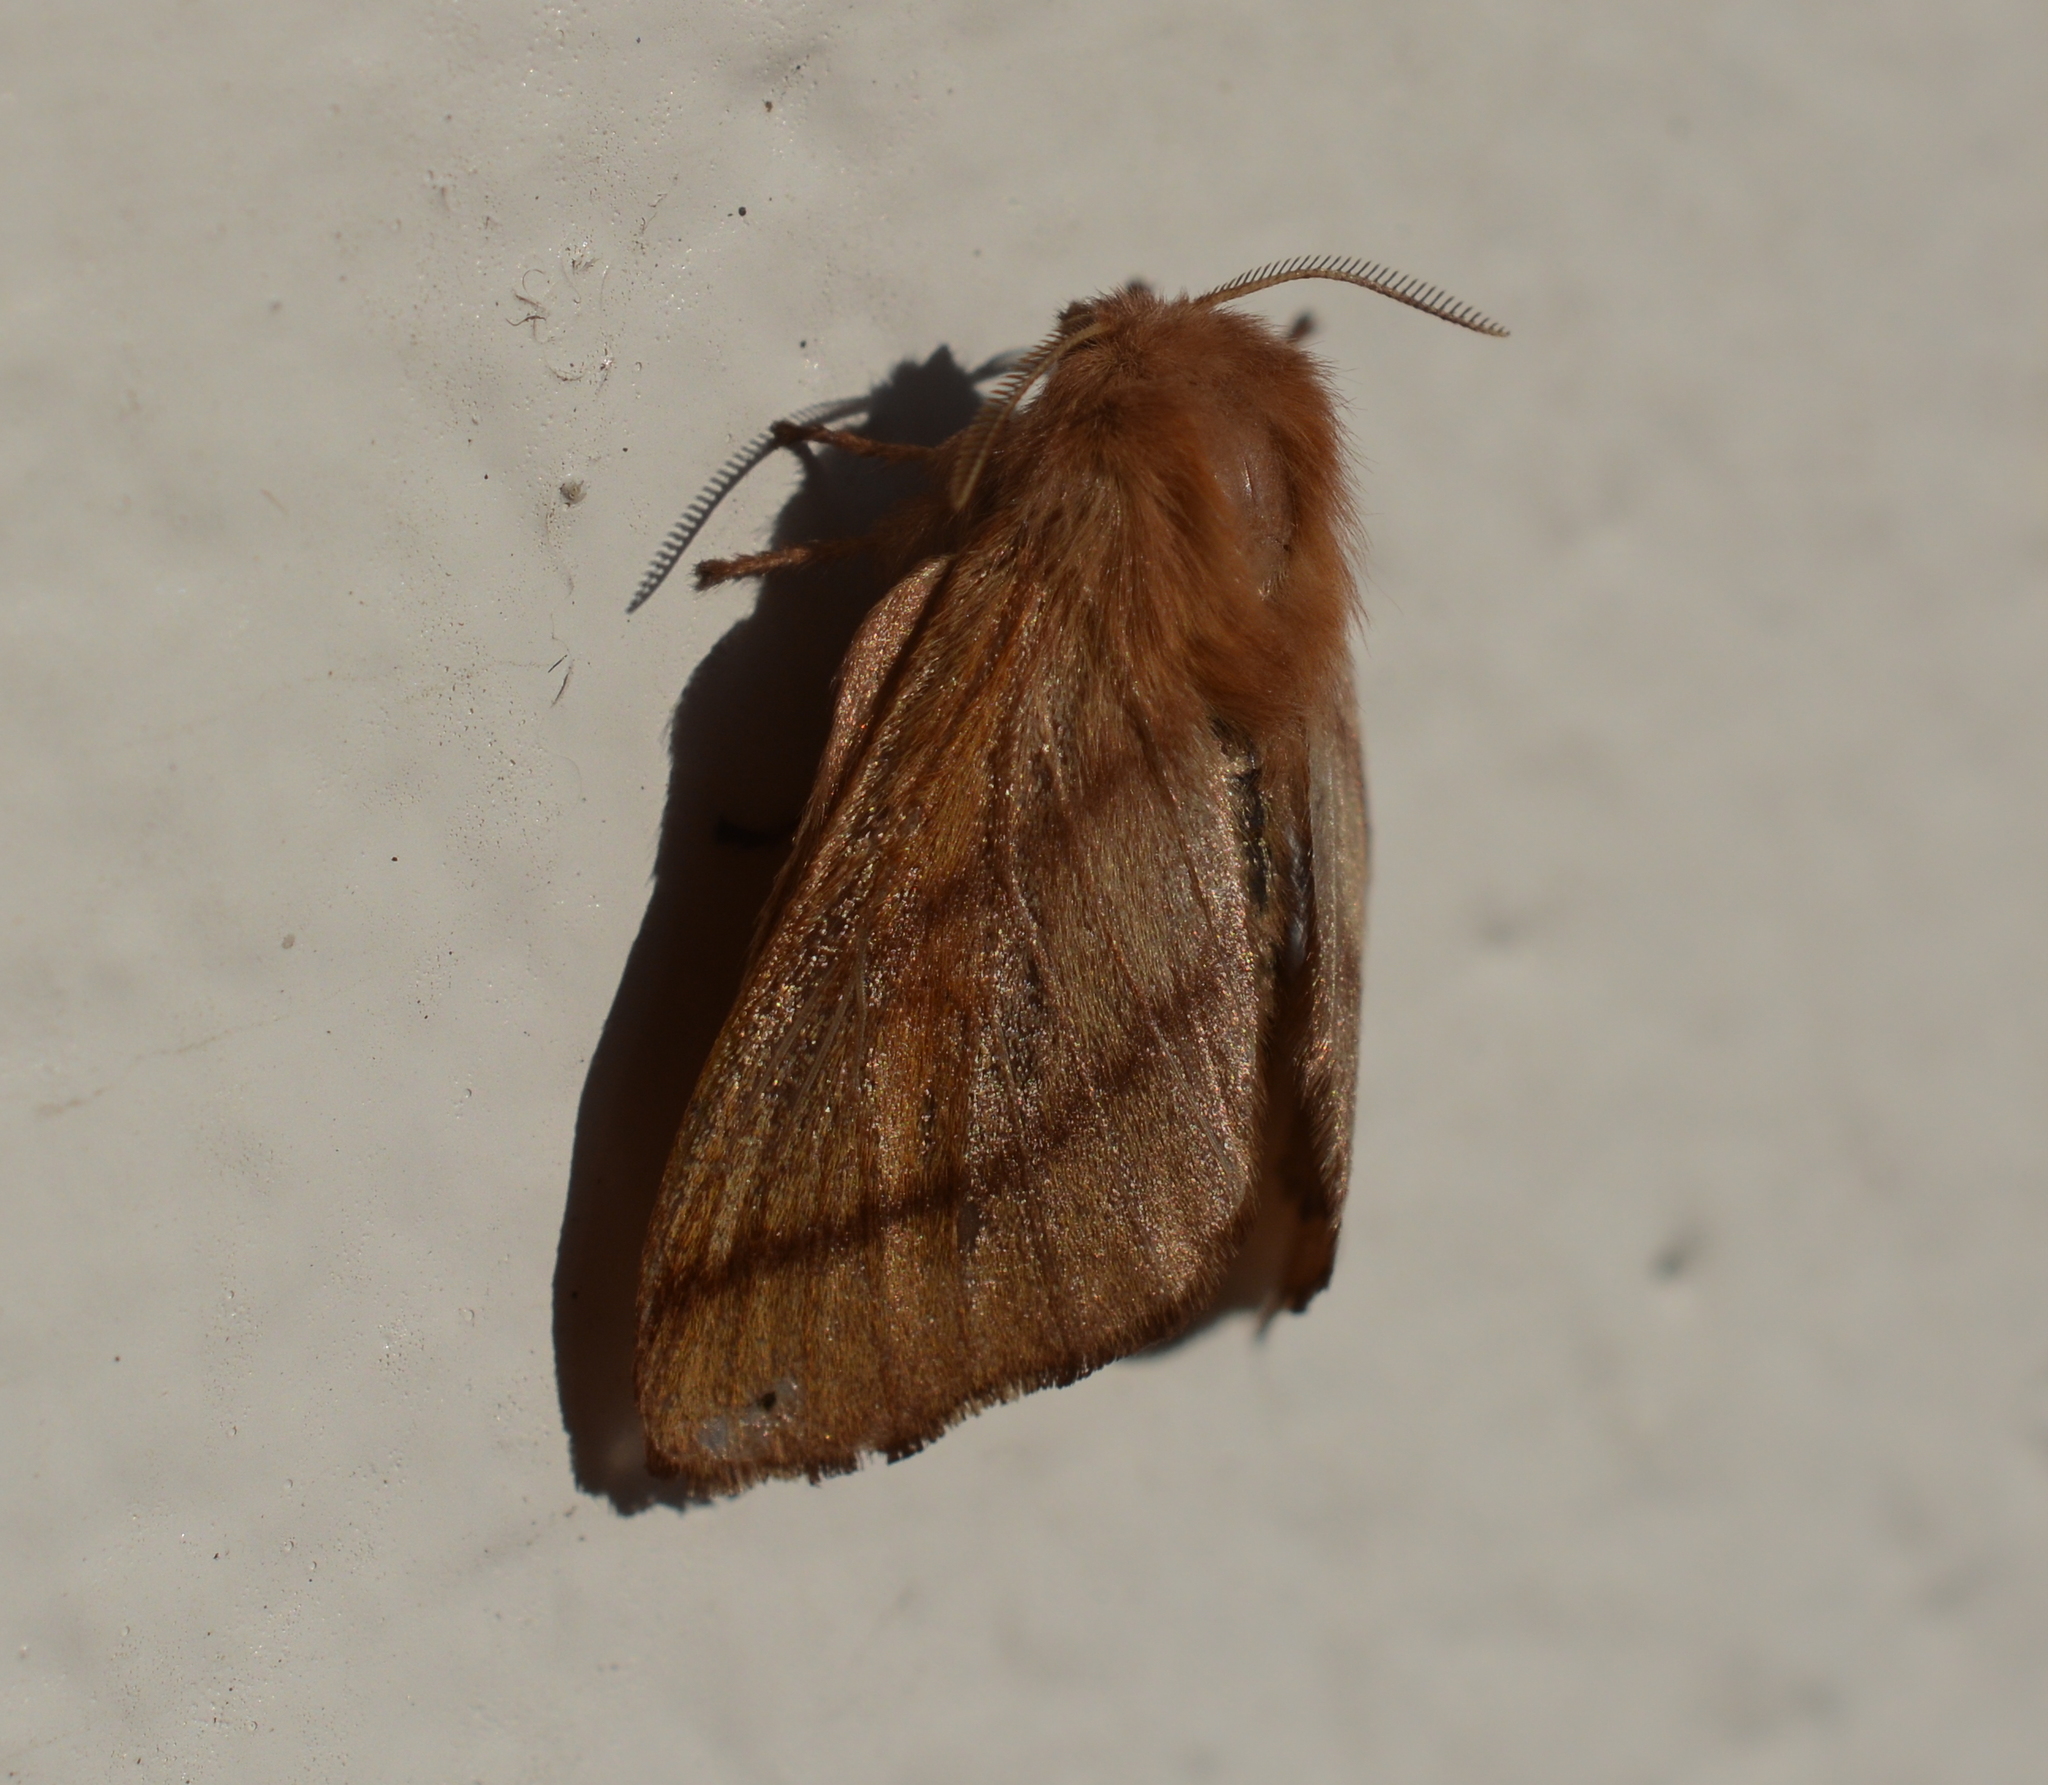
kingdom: Animalia
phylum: Arthropoda
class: Insecta
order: Lepidoptera
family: Lasiocampidae
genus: Malacosoma
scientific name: Malacosoma disstria
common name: Forest tent caterpillar
